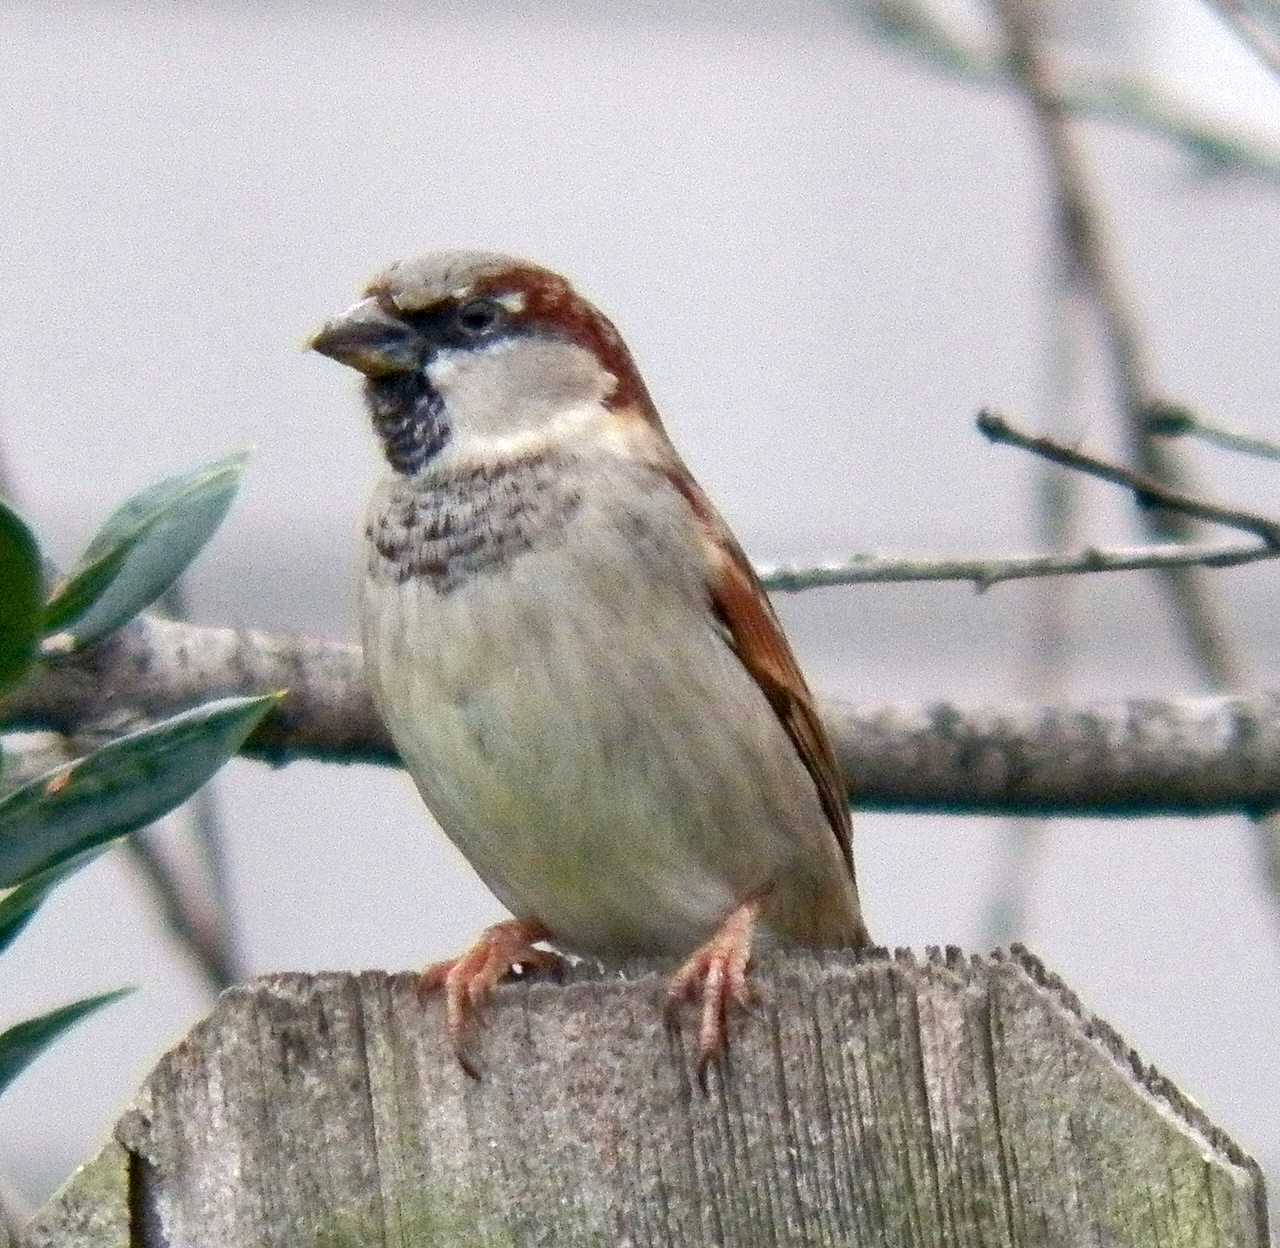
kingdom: Animalia
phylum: Chordata
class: Aves
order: Passeriformes
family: Passeridae
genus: Passer
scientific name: Passer domesticus
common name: House sparrow
